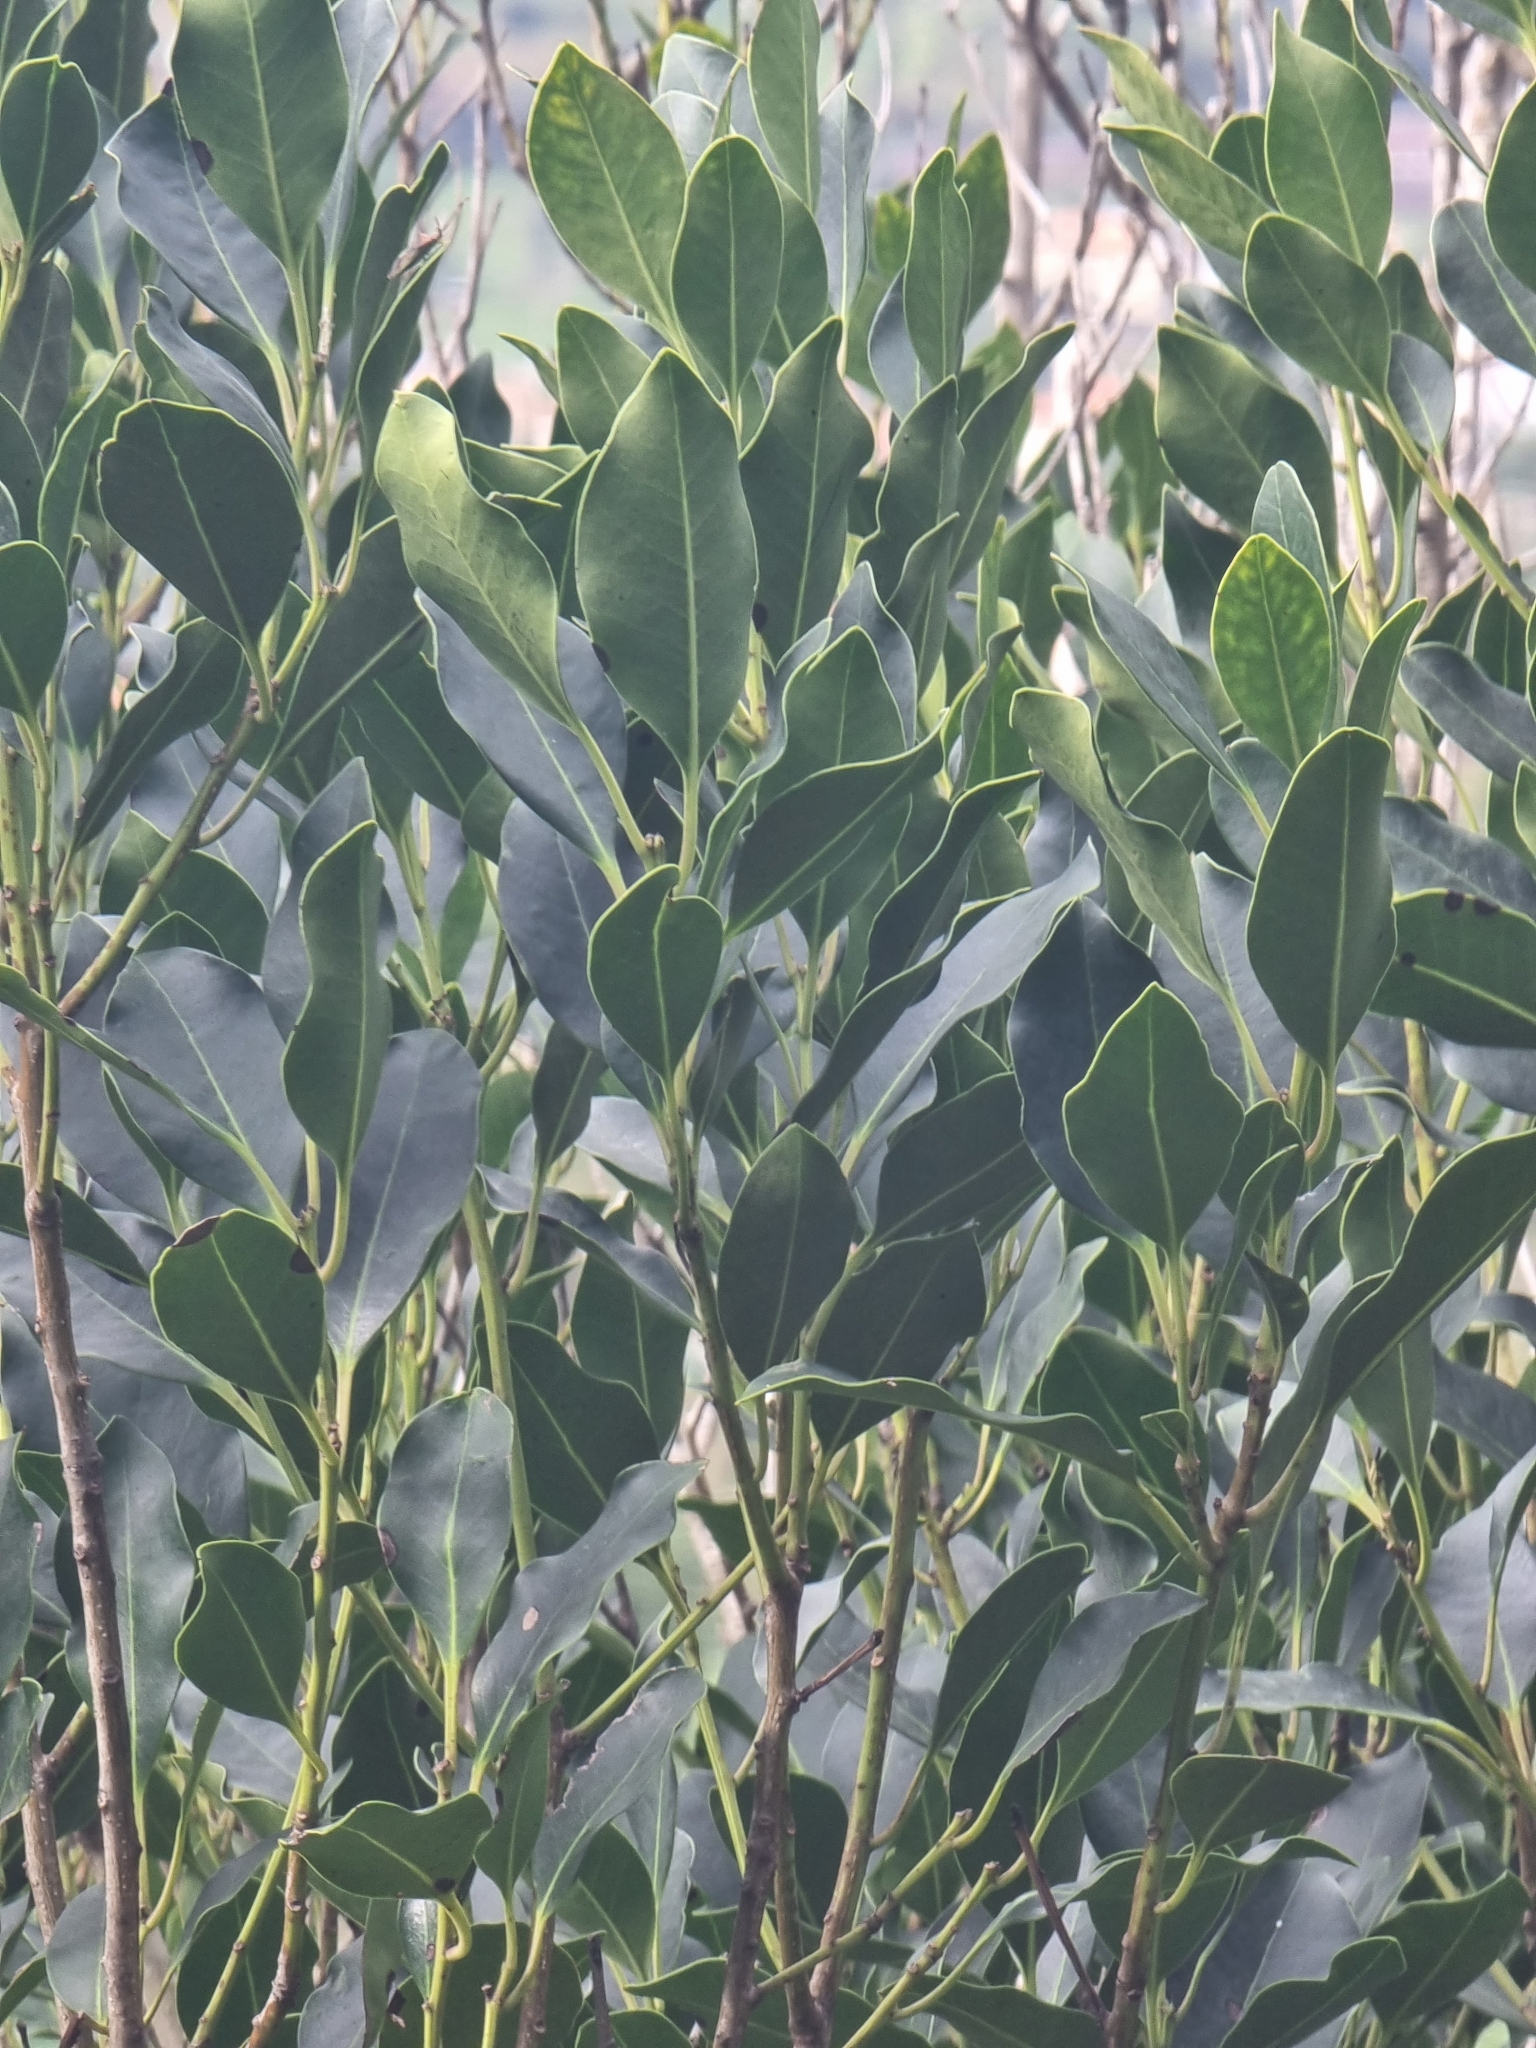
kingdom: Plantae
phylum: Tracheophyta
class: Magnoliopsida
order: Aquifoliales
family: Aquifoliaceae
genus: Ilex
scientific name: Ilex canariensis
